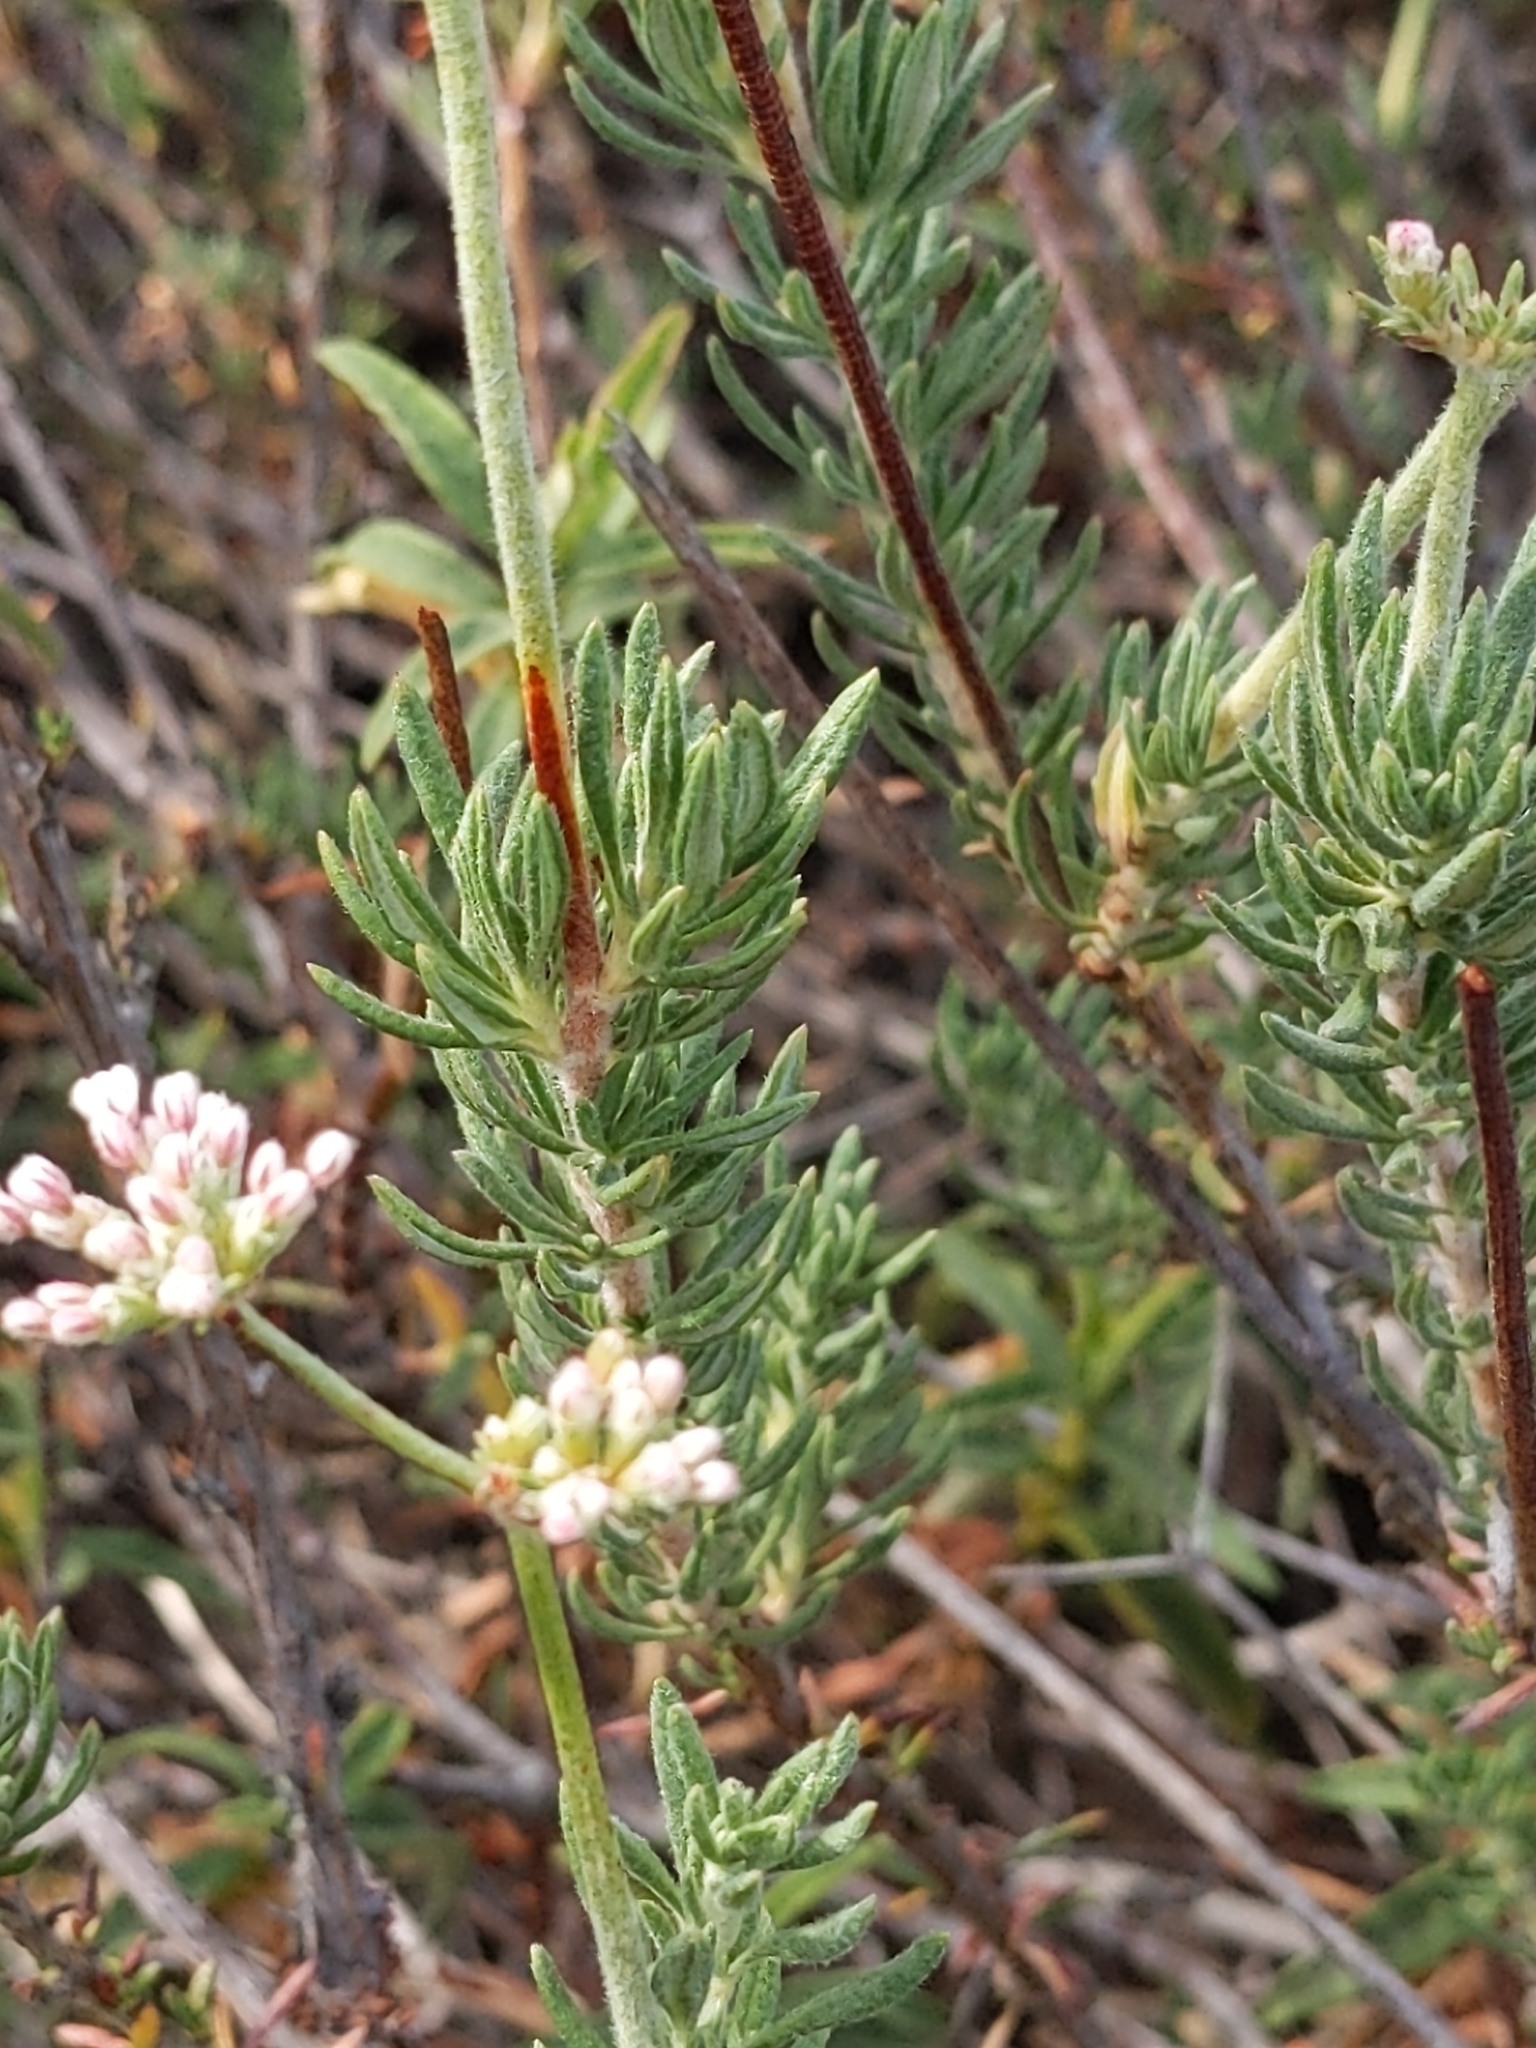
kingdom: Plantae
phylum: Tracheophyta
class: Magnoliopsida
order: Caryophyllales
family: Polygonaceae
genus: Eriogonum
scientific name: Eriogonum fasciculatum
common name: California wild buckwheat
